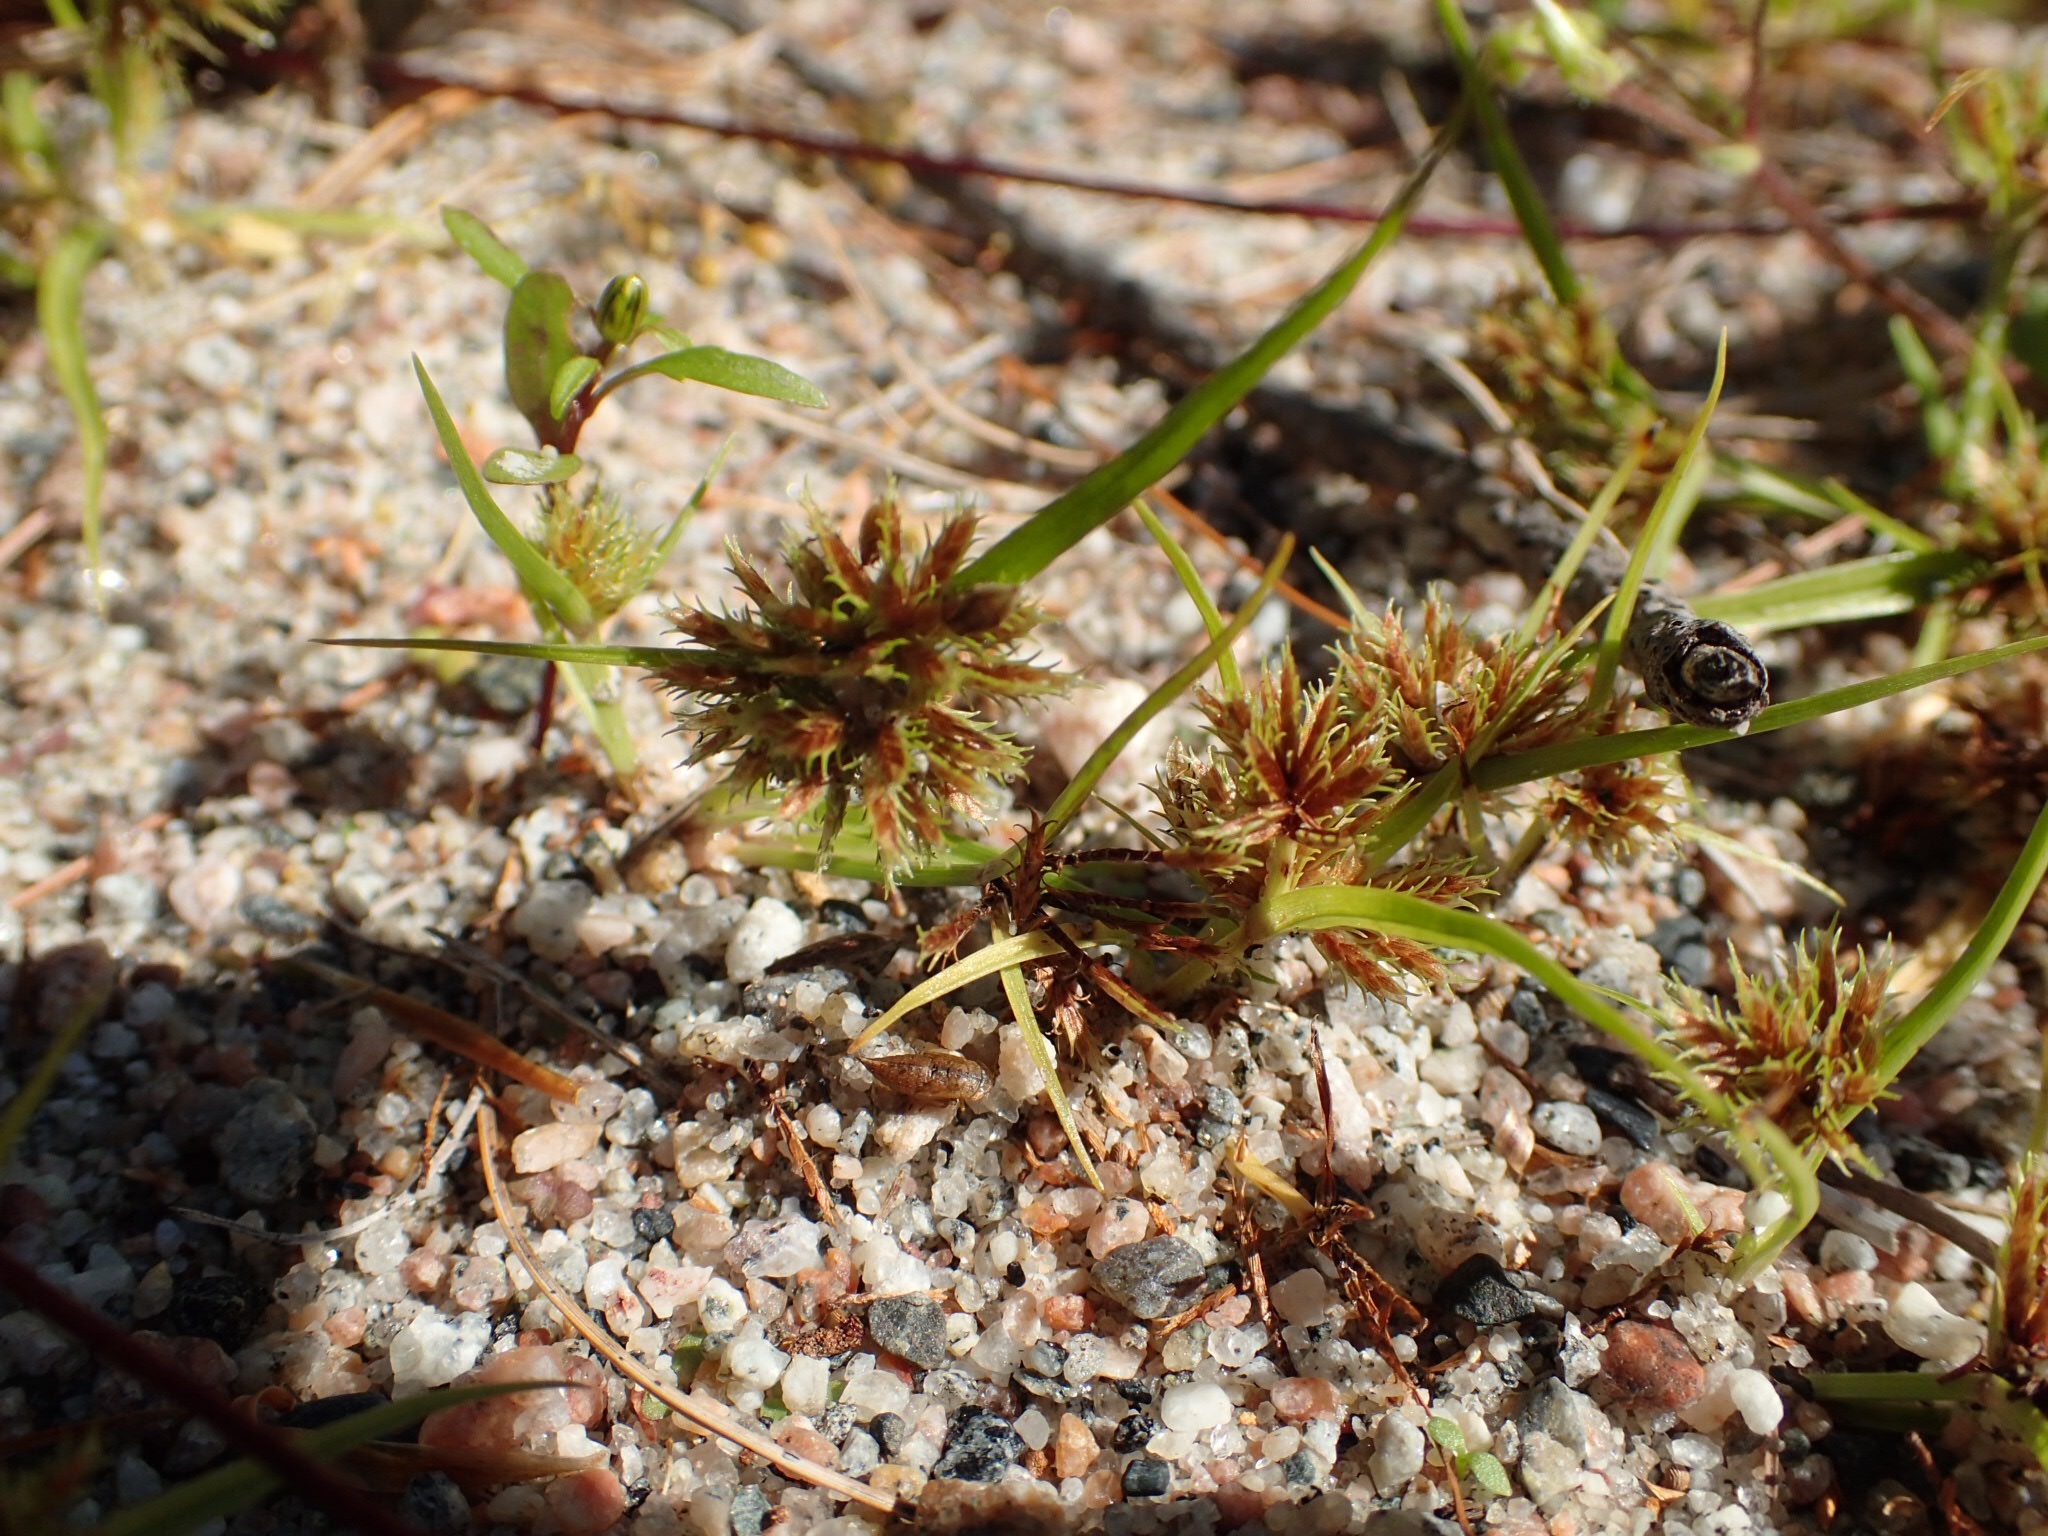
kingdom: Plantae
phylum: Tracheophyta
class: Liliopsida
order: Poales
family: Cyperaceae
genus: Cyperus
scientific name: Cyperus squarrosus
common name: Awned cyperus
